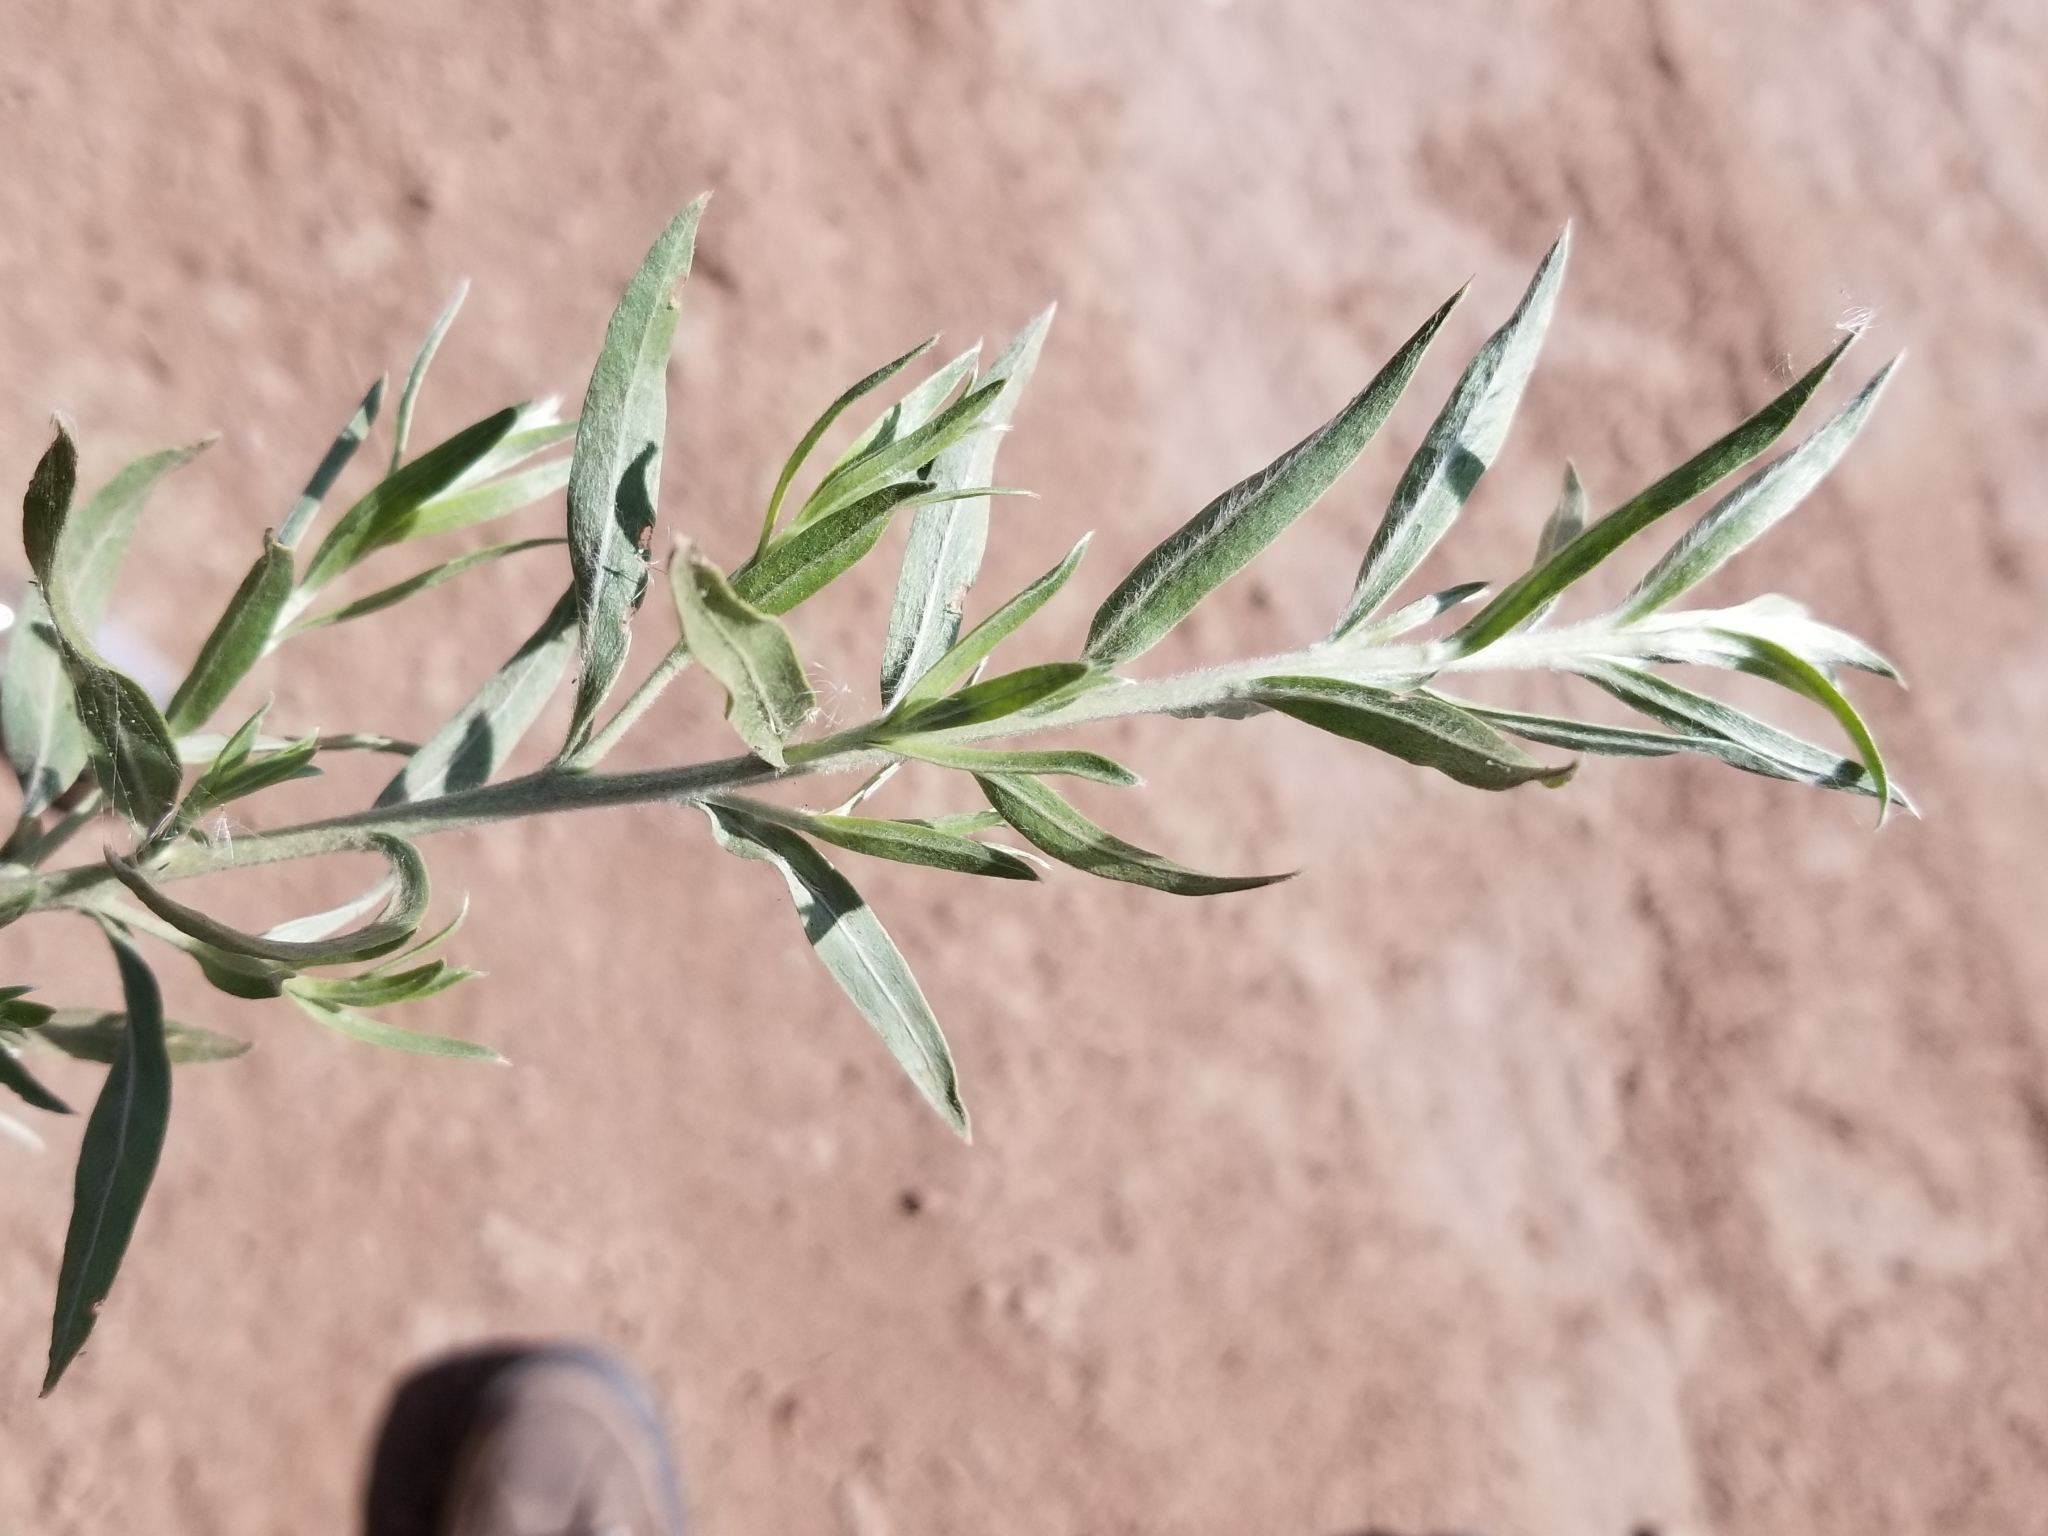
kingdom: Plantae
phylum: Tracheophyta
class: Magnoliopsida
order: Asterales
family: Asteraceae
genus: Pluchea
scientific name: Pluchea sericea
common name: Arrow-weed
